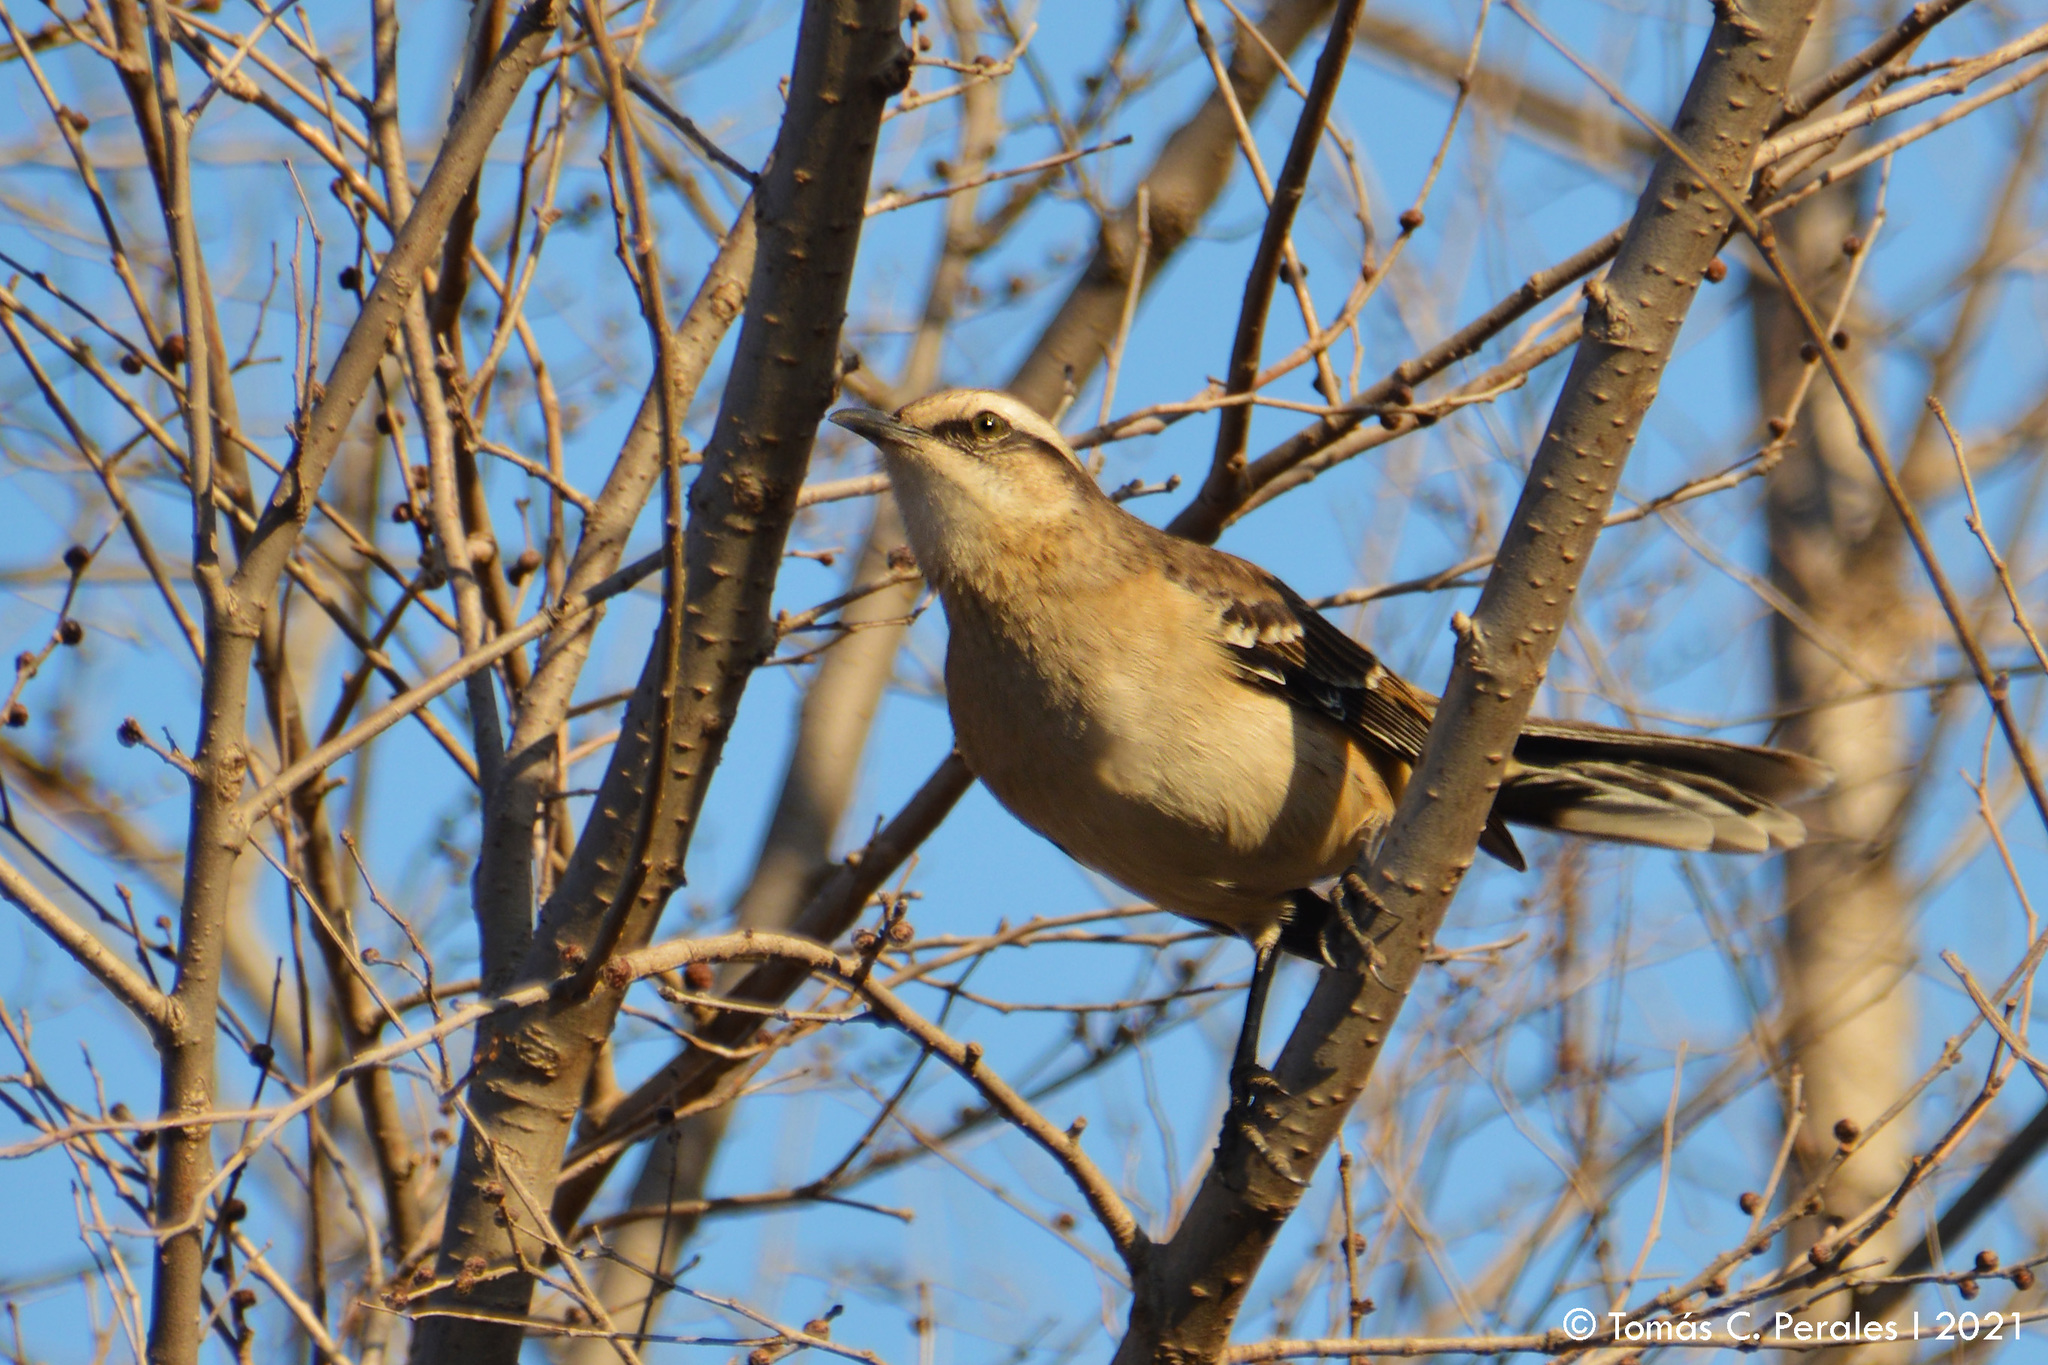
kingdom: Animalia
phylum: Chordata
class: Aves
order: Passeriformes
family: Mimidae
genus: Mimus
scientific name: Mimus saturninus
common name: Chalk-browed mockingbird
